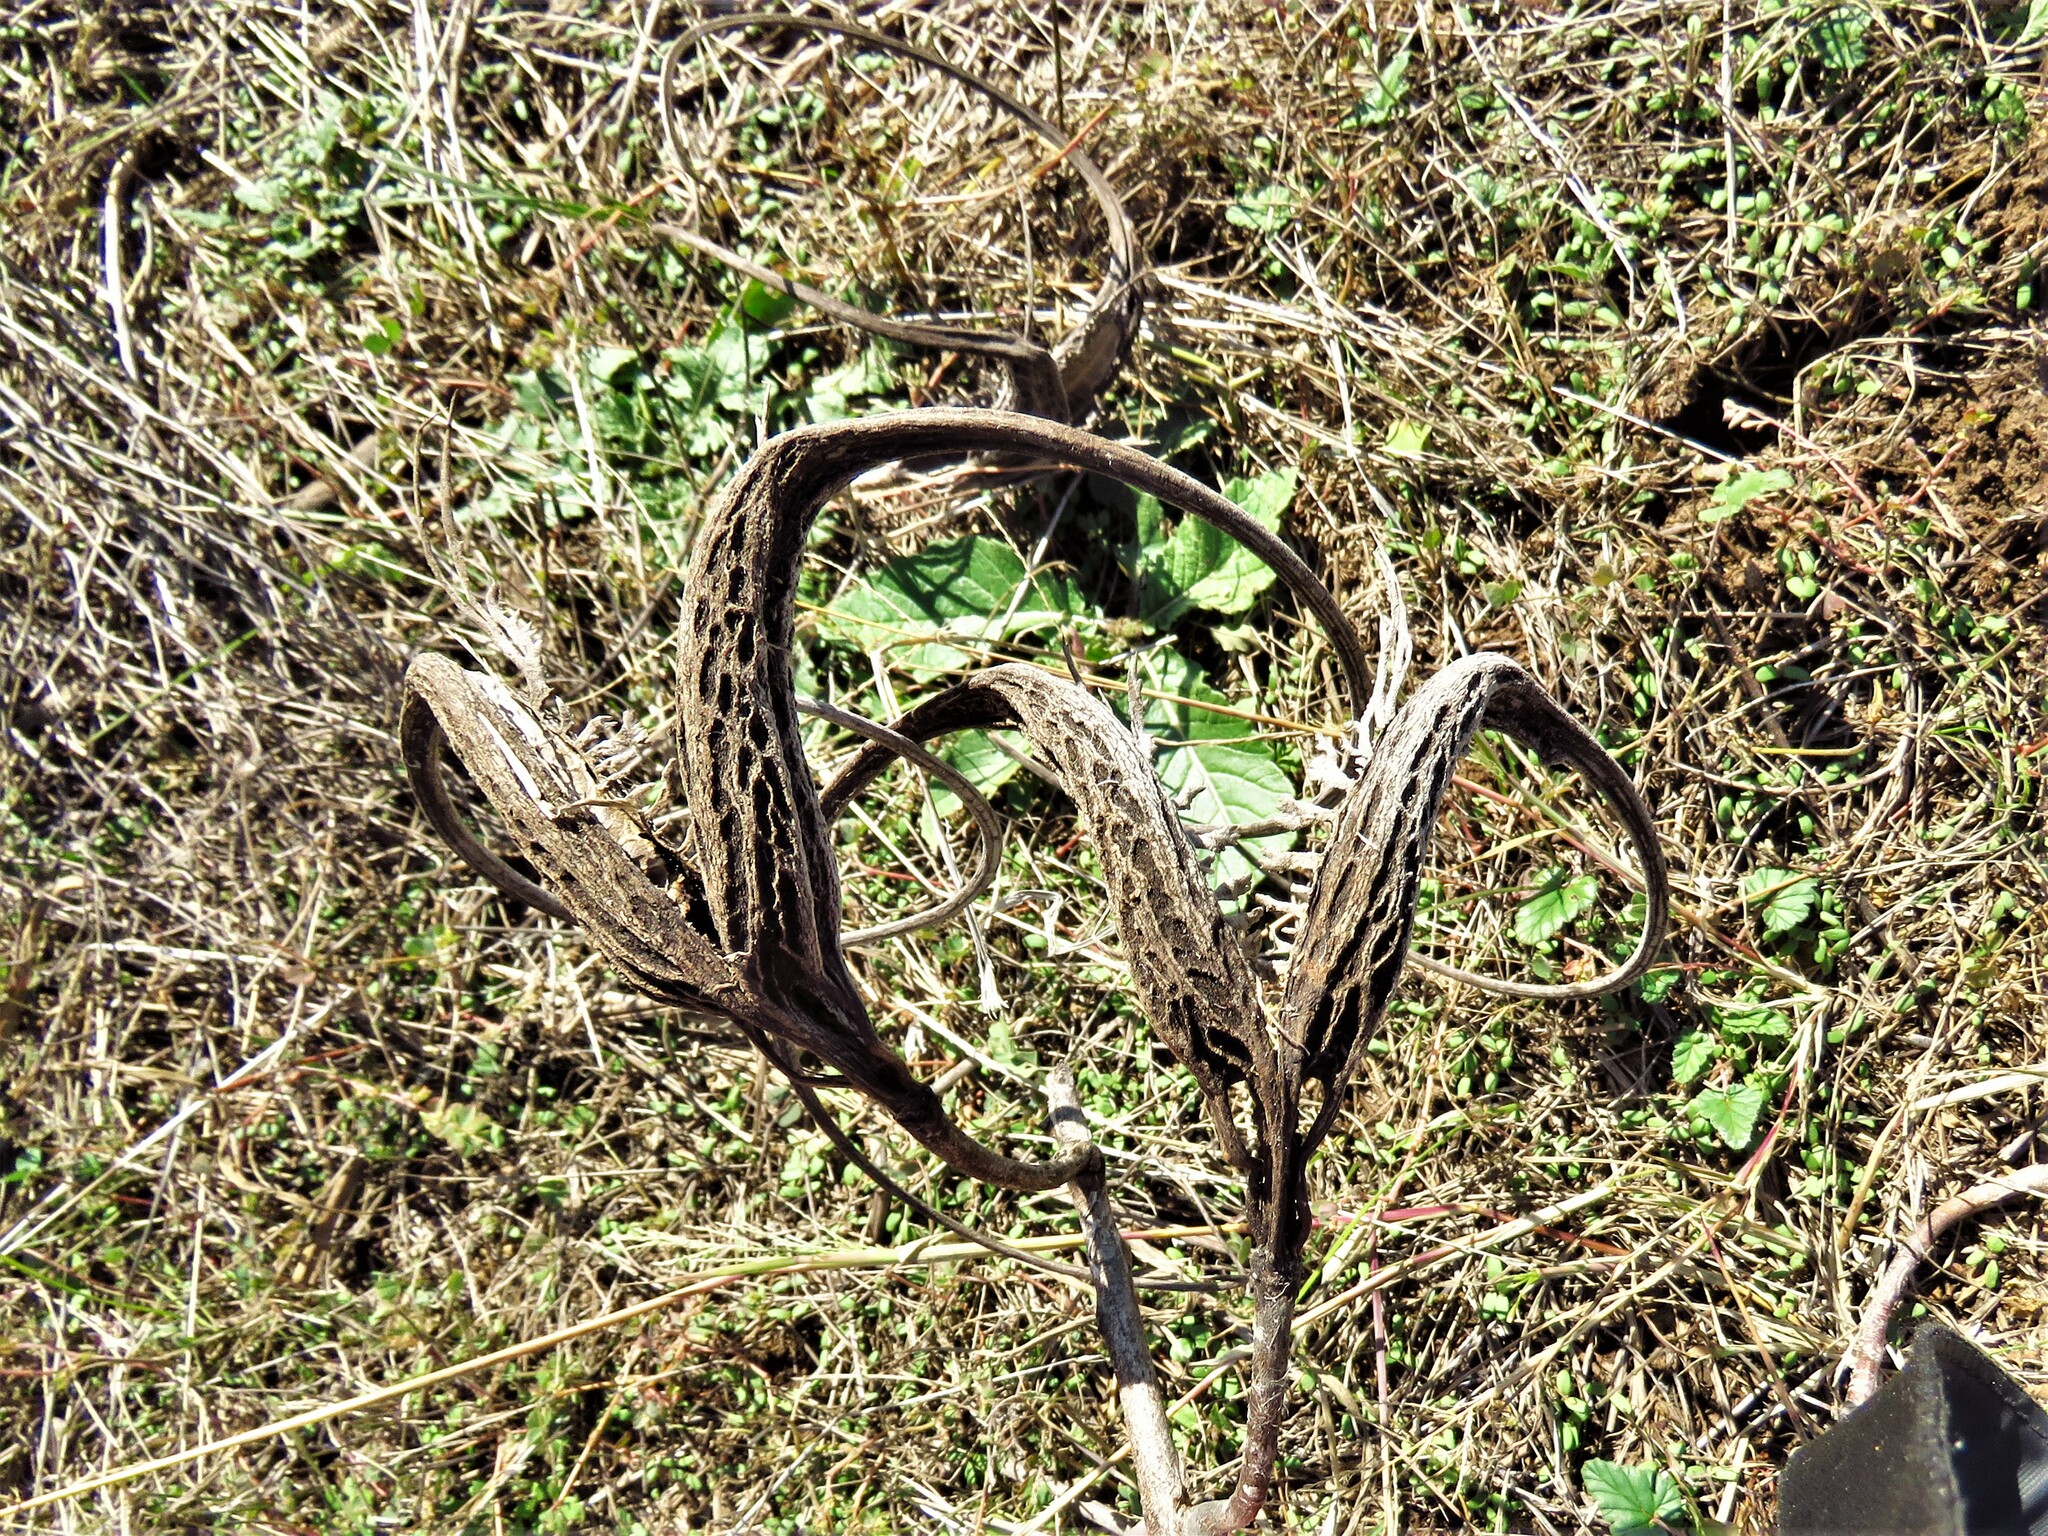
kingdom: Plantae
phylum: Tracheophyta
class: Magnoliopsida
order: Lamiales
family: Martyniaceae
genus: Proboscidea
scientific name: Proboscidea louisianica
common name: Elephant tusks
